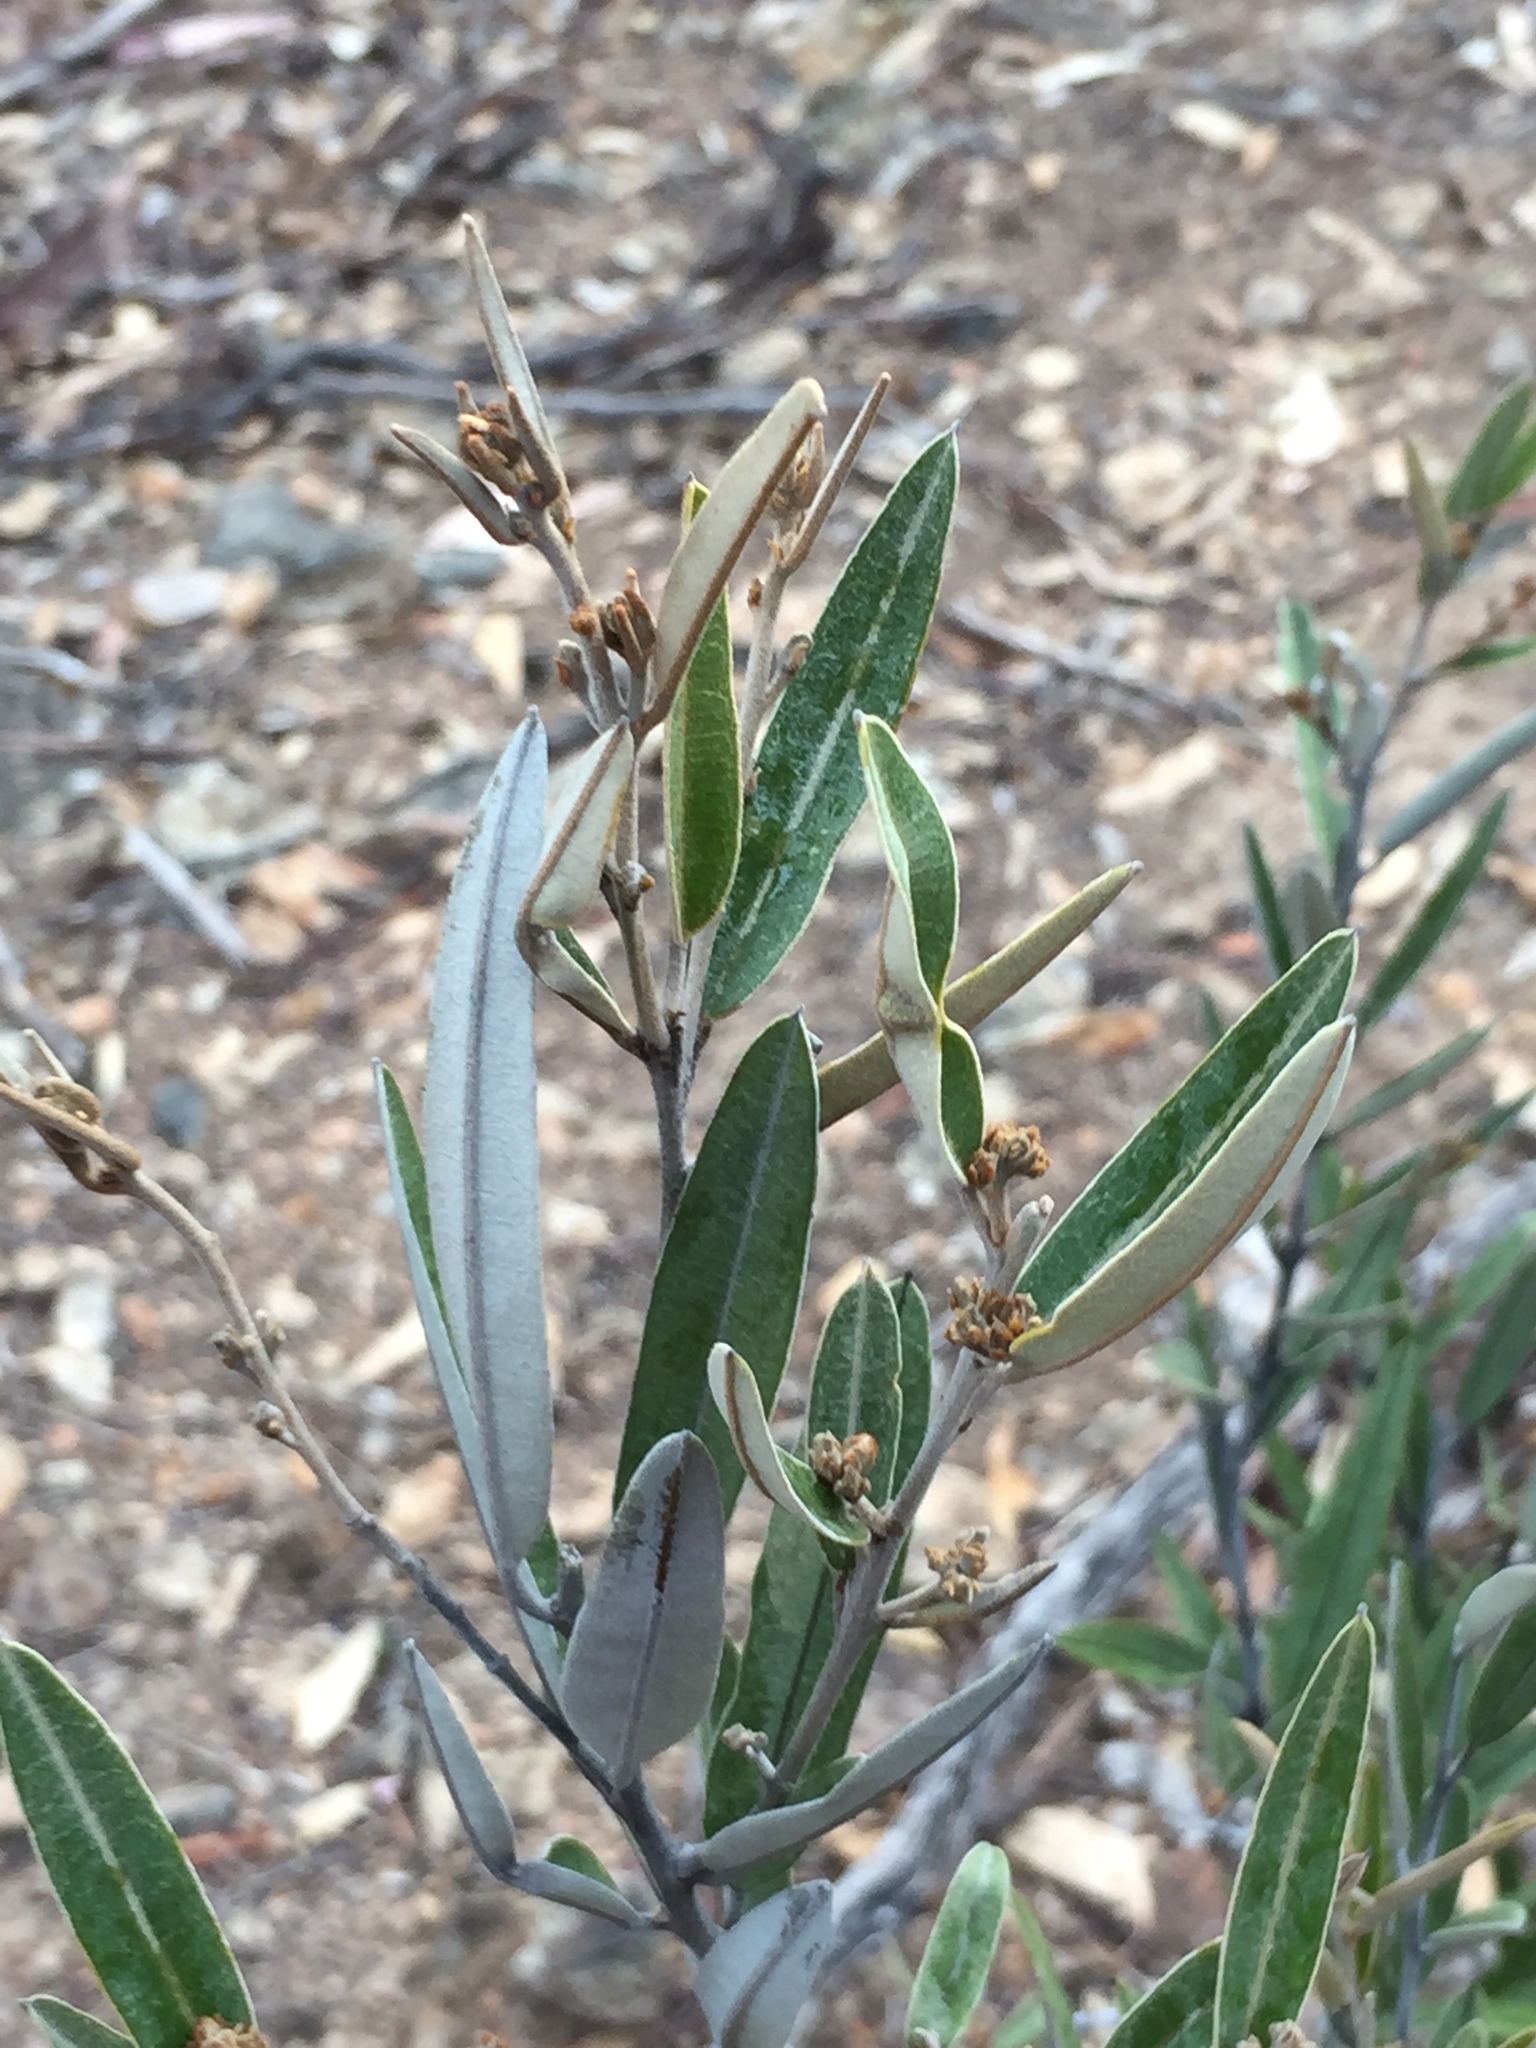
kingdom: Plantae
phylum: Tracheophyta
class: Magnoliopsida
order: Fabales
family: Fabaceae
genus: Hovea
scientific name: Hovea apiculata
